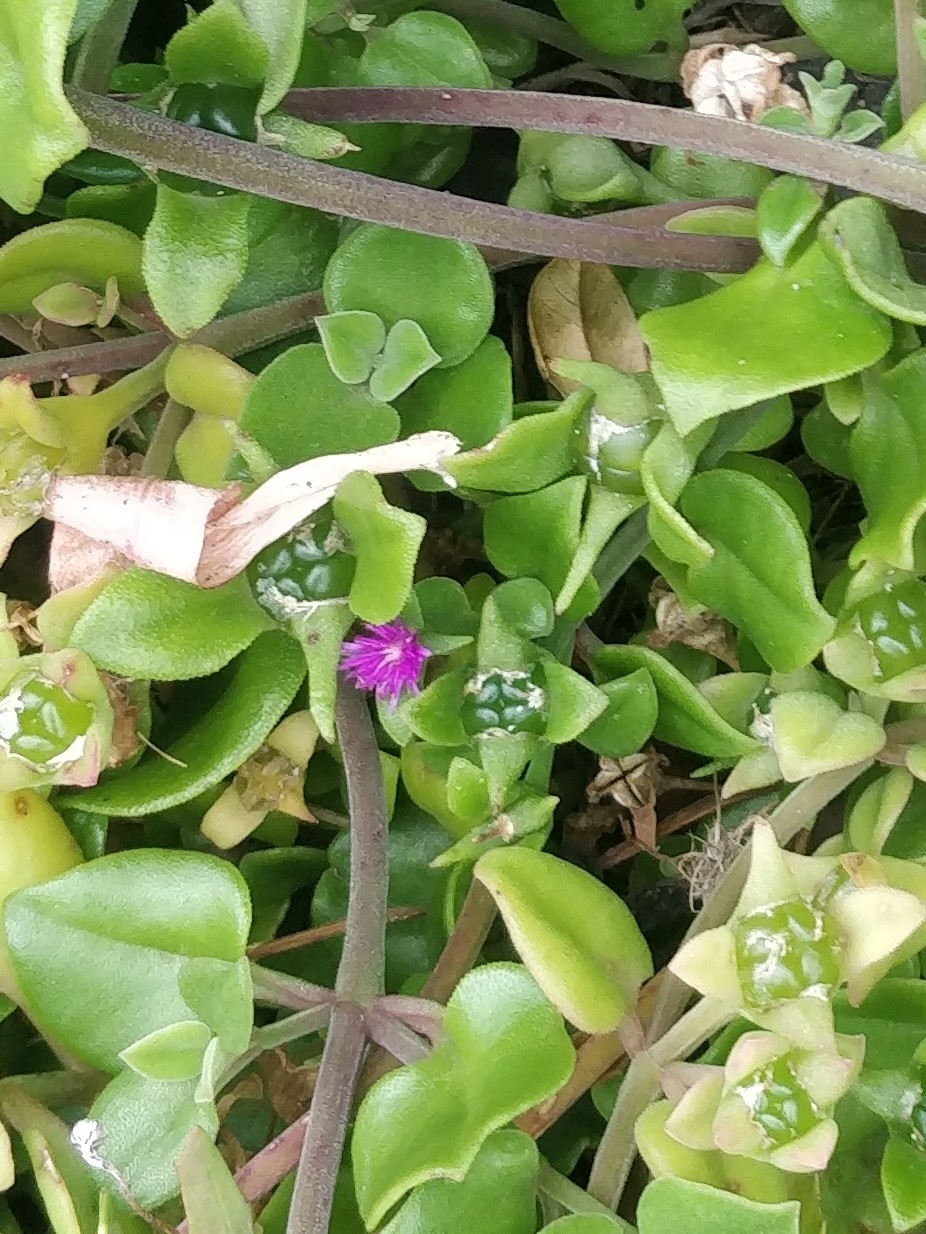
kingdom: Plantae
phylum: Tracheophyta
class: Magnoliopsida
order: Caryophyllales
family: Aizoaceae
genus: Mesembryanthemum
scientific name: Mesembryanthemum cordifolium
